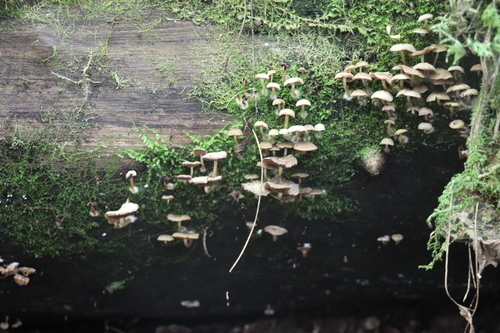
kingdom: Fungi
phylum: Basidiomycota
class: Agaricomycetes
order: Agaricales
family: Psathyrellaceae
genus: Psathyrella
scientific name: Psathyrella pygmaea
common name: Pygmy brittlestem
